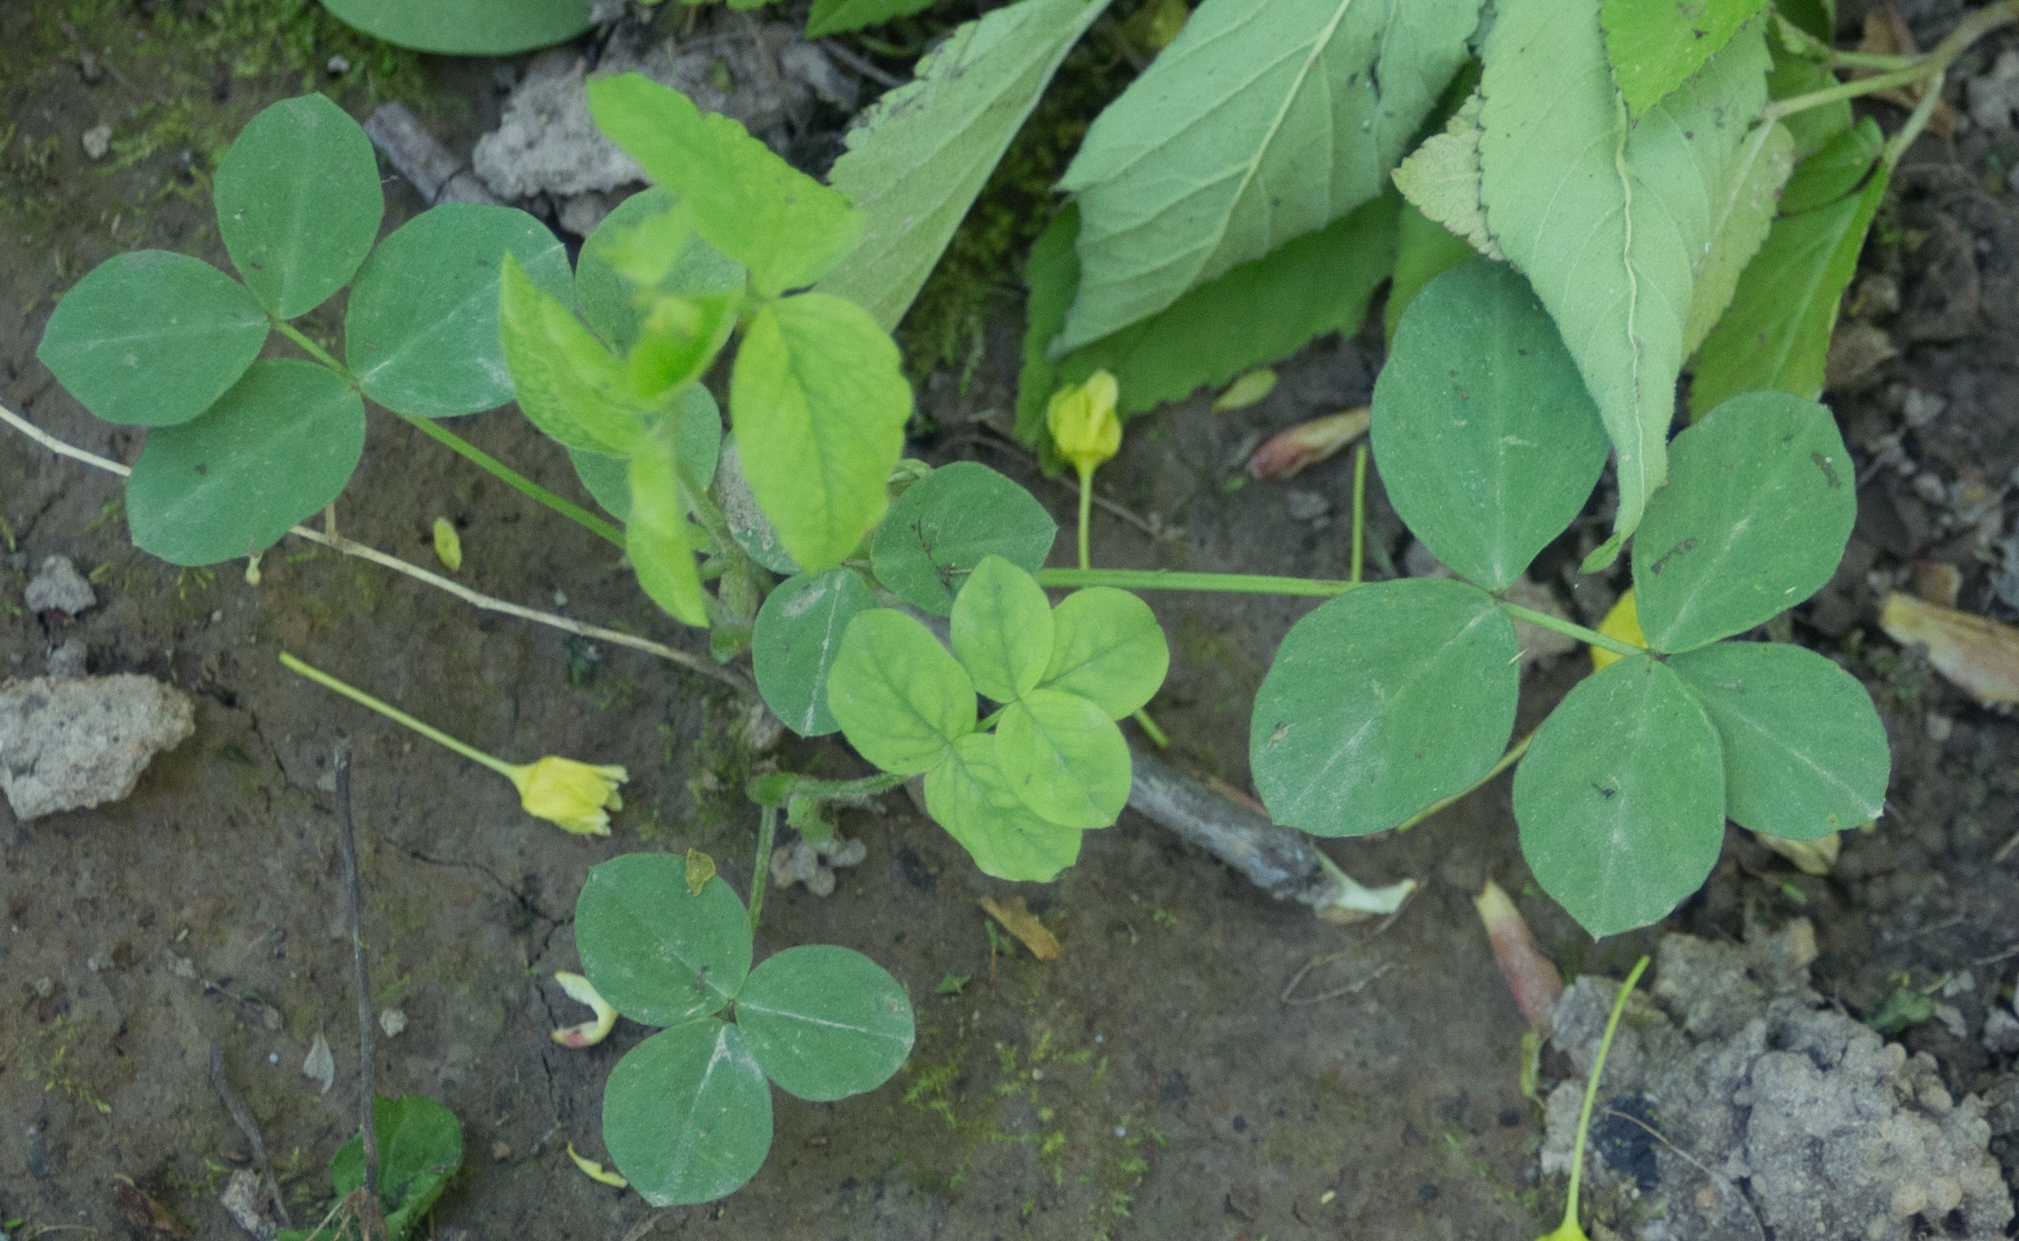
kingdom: Plantae
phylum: Tracheophyta
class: Magnoliopsida
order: Fabales
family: Fabaceae
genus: Galega
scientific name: Galega orientalis
